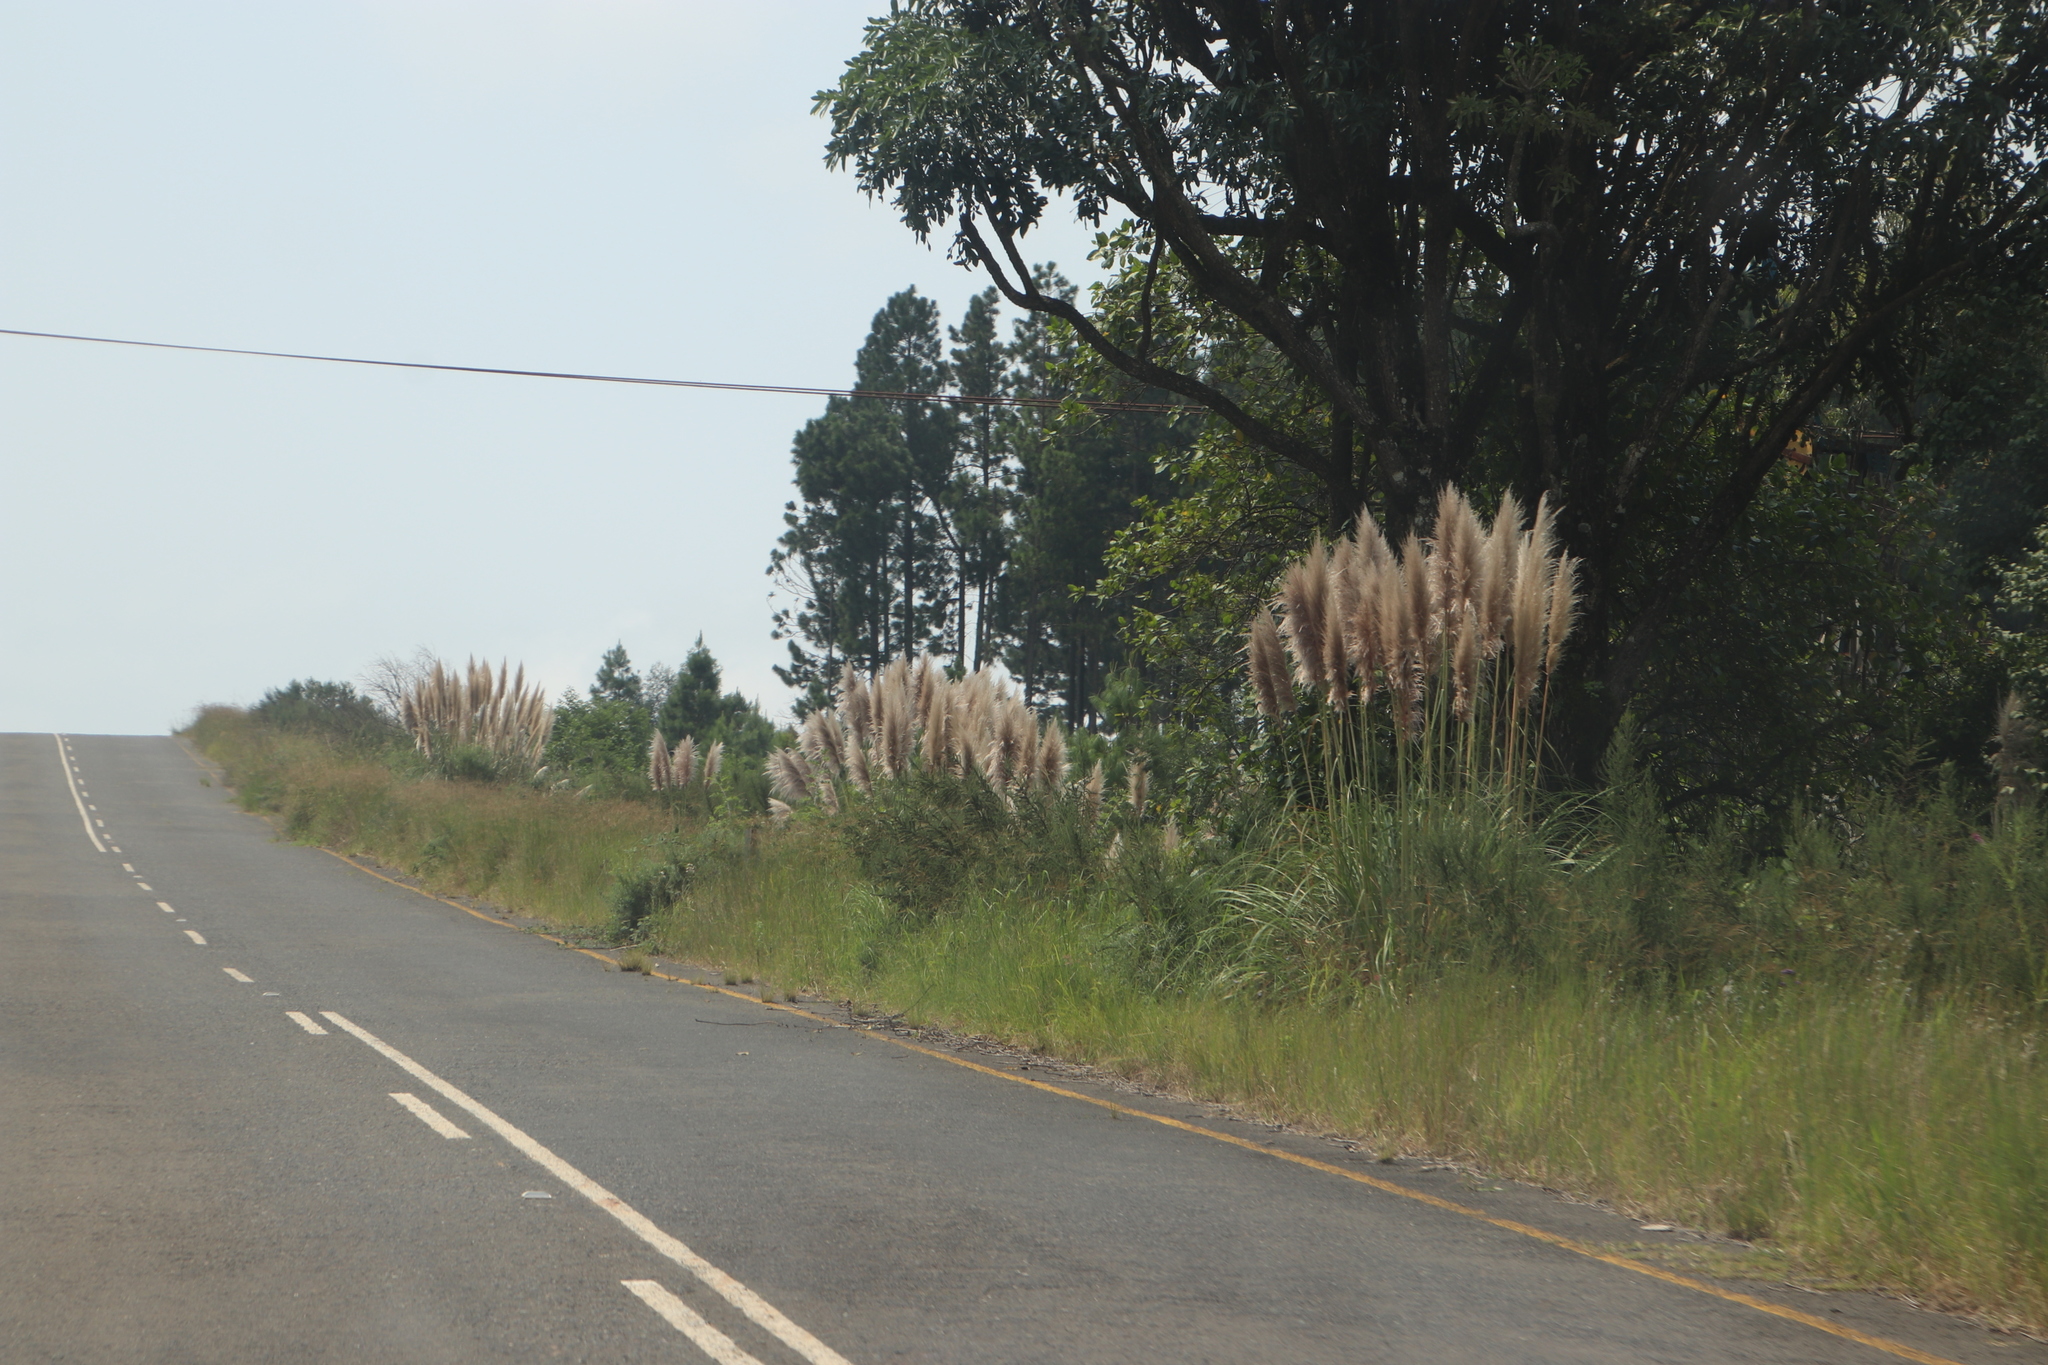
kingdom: Plantae
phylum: Tracheophyta
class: Liliopsida
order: Poales
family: Poaceae
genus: Cortaderia
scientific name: Cortaderia selloana
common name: Uruguayan pampas grass
